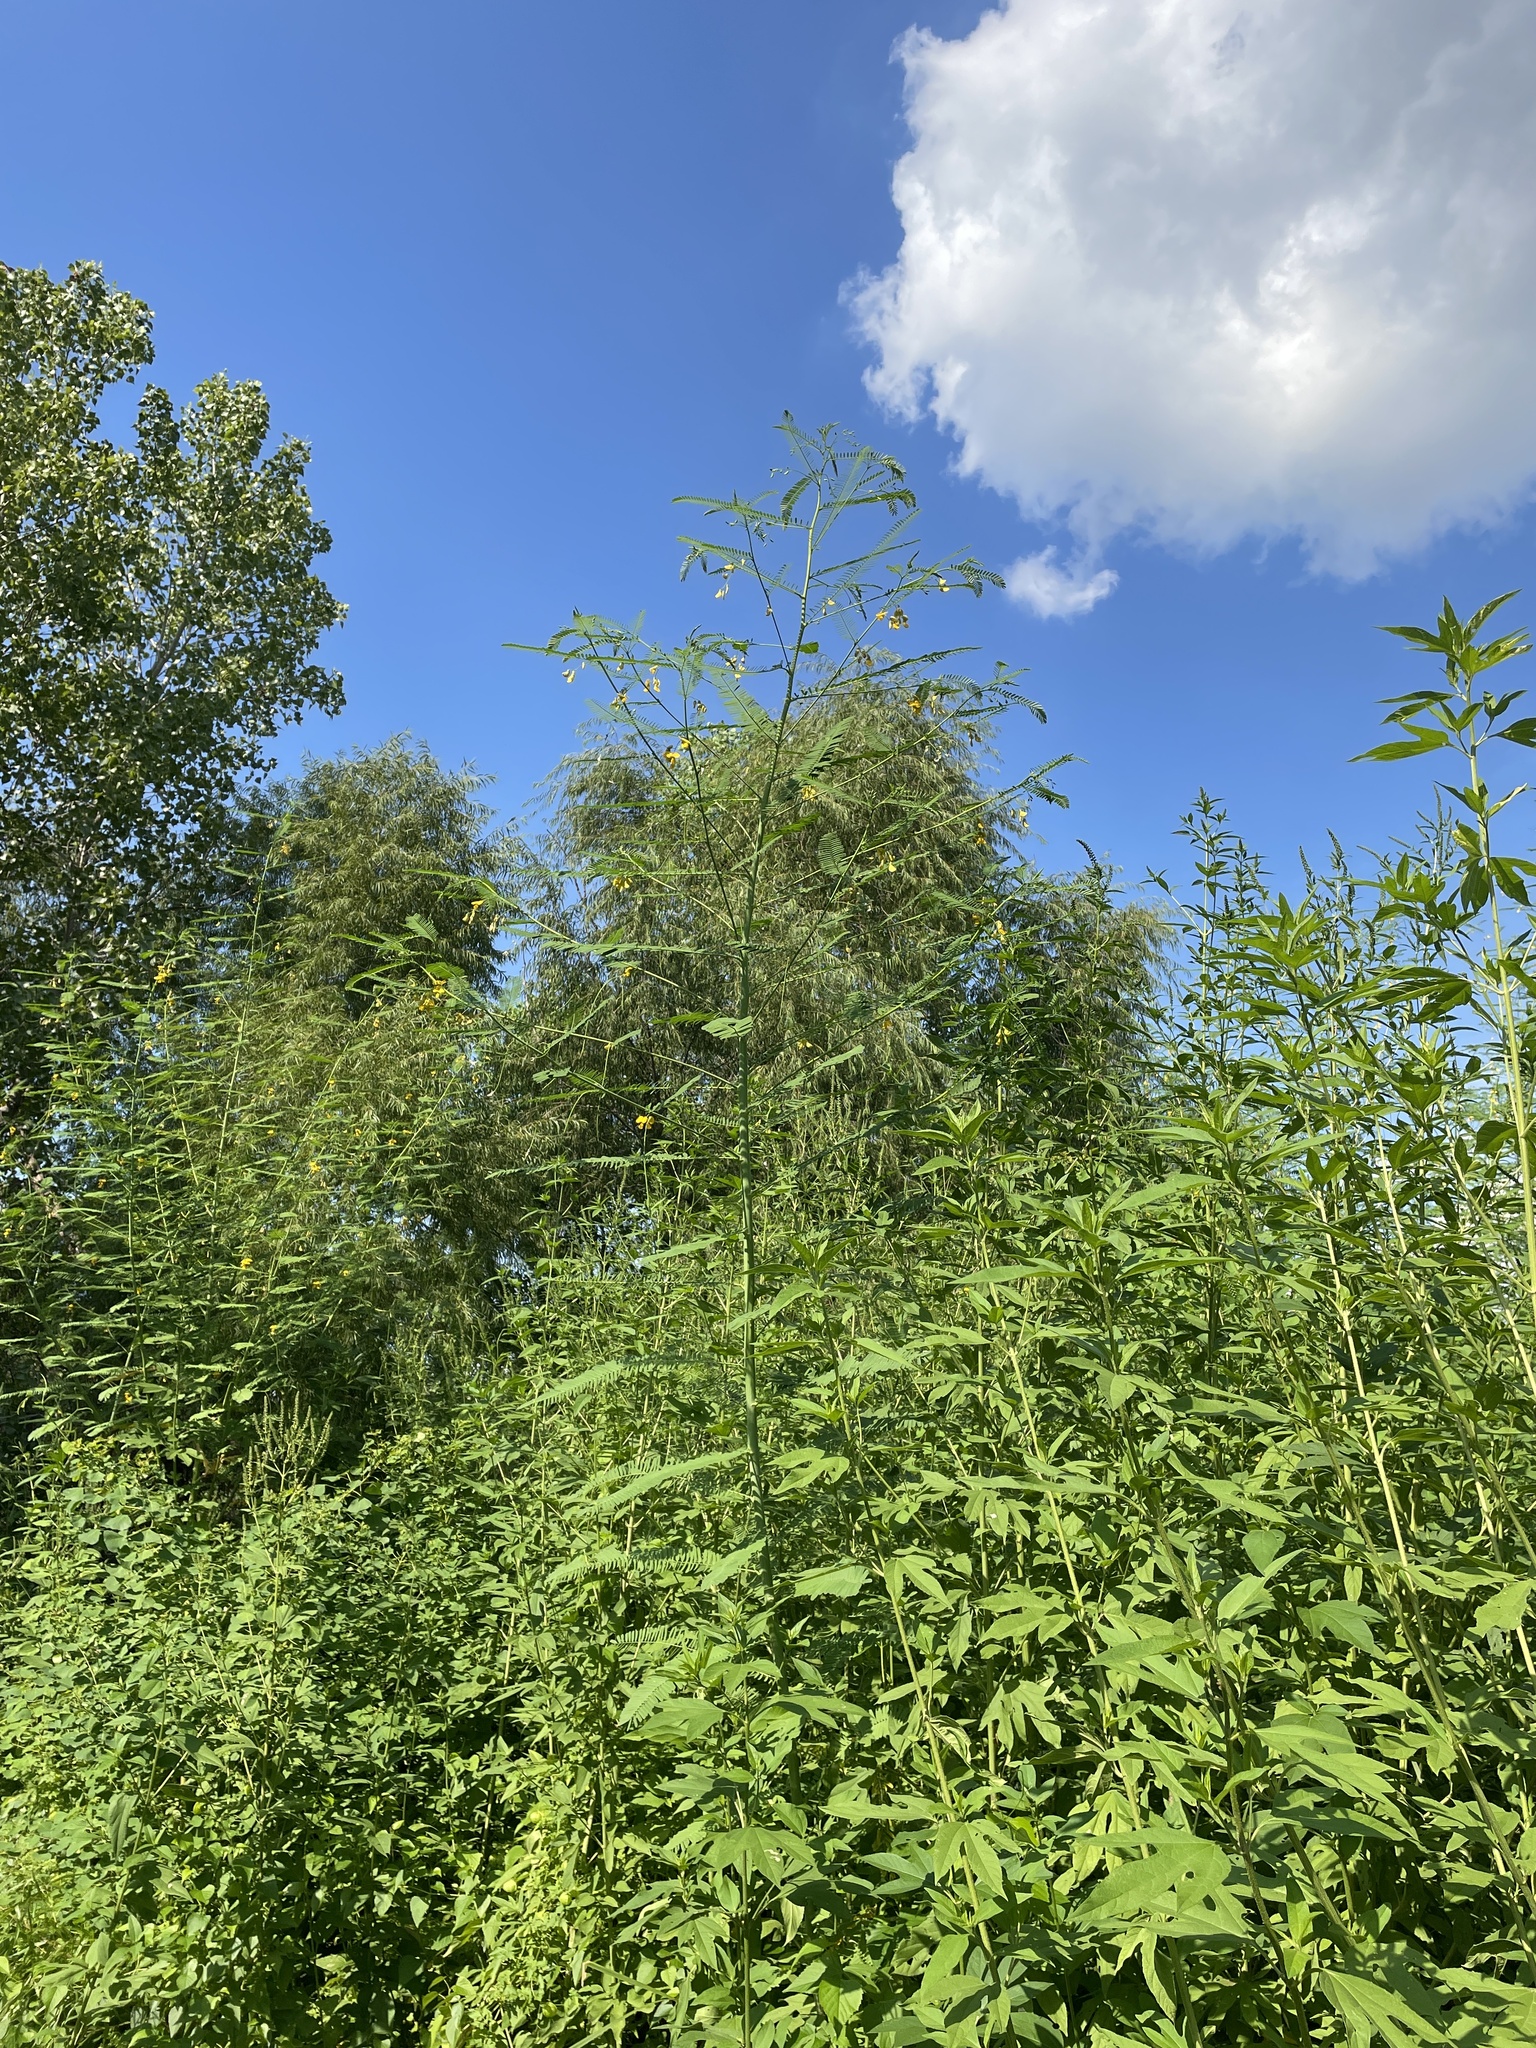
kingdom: Plantae
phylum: Tracheophyta
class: Magnoliopsida
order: Fabales
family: Fabaceae
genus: Sesbania
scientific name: Sesbania herbacea
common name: Bigpod sesbania
